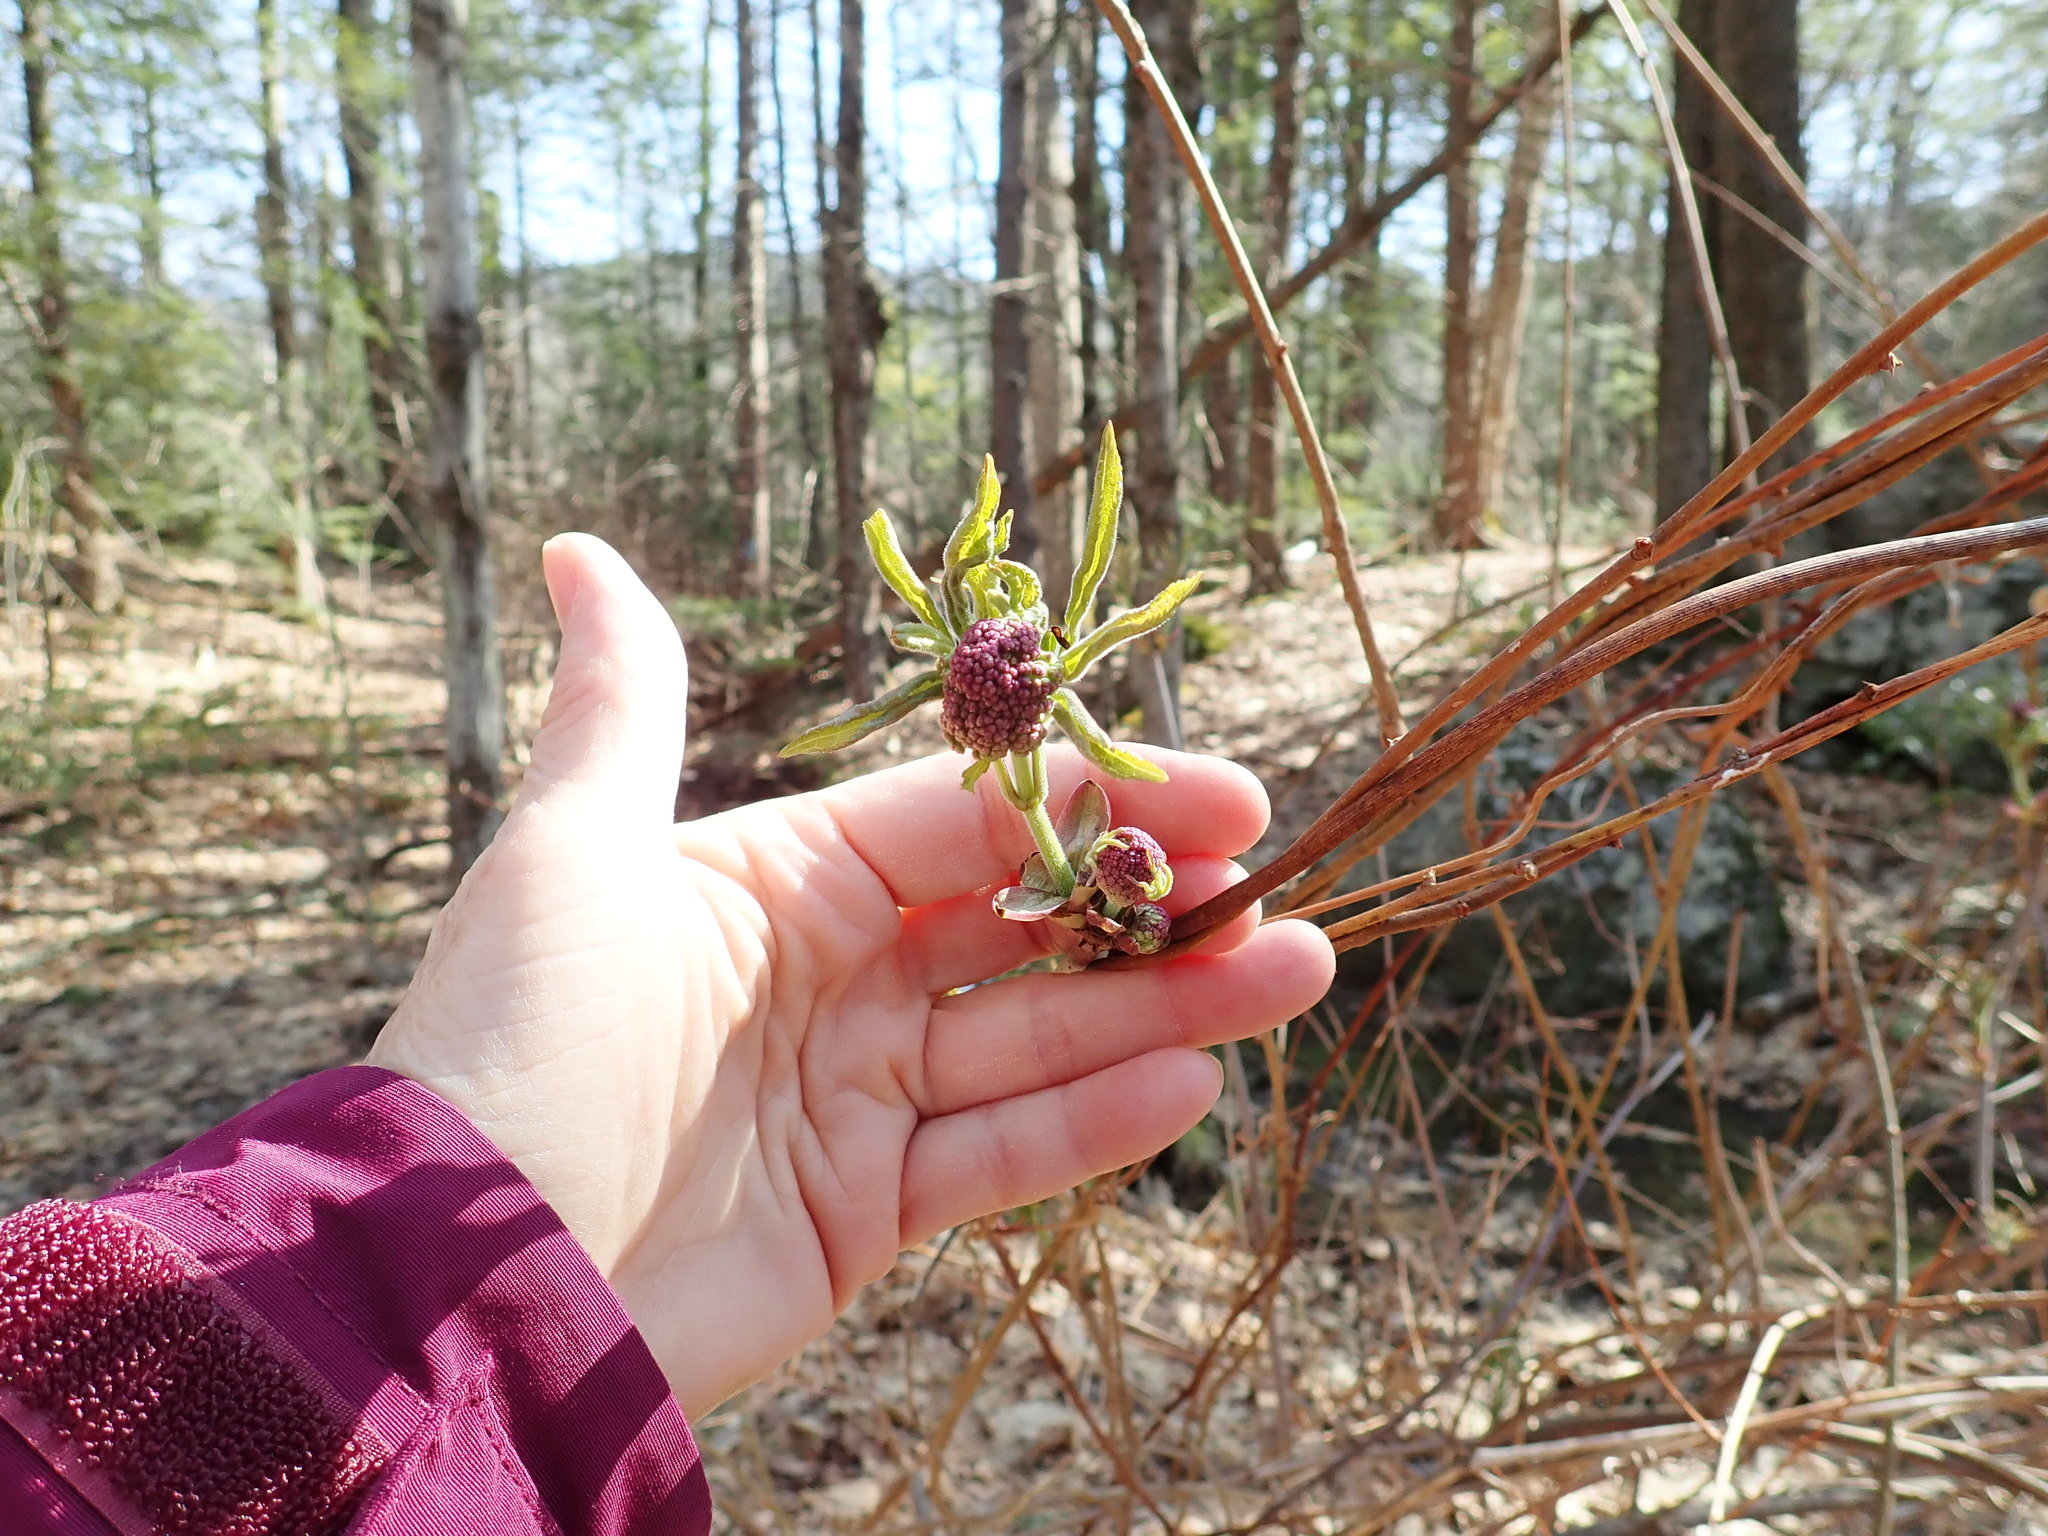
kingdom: Plantae
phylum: Tracheophyta
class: Magnoliopsida
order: Dipsacales
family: Viburnaceae
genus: Sambucus
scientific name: Sambucus racemosa
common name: Red-berried elder
